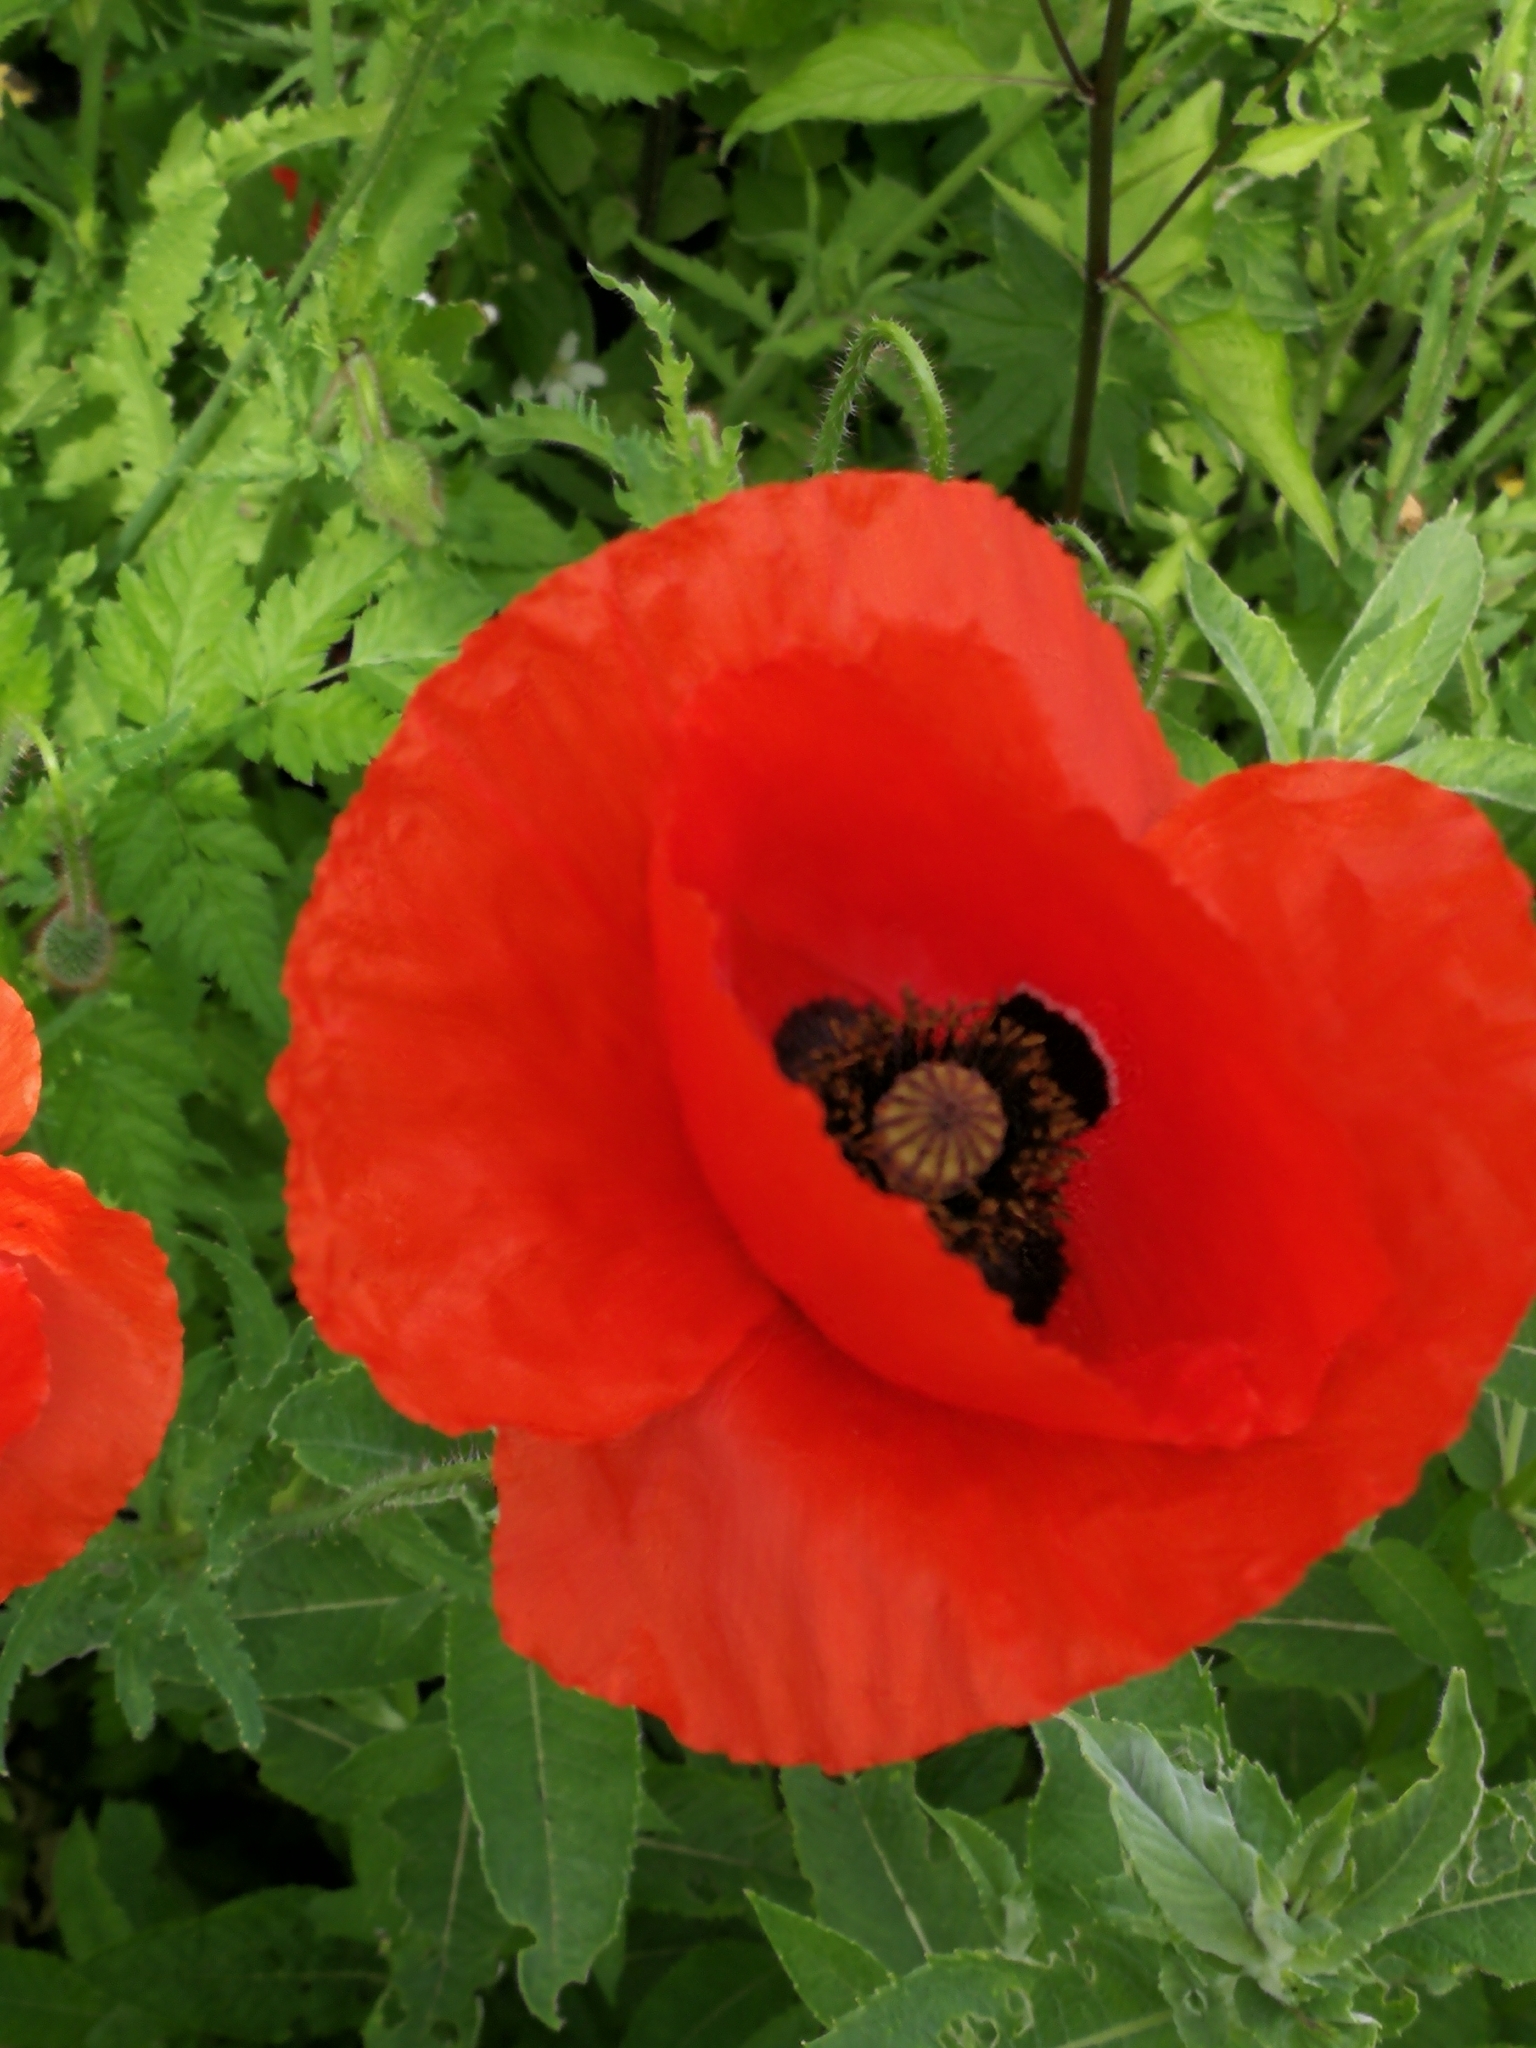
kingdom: Plantae
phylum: Tracheophyta
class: Magnoliopsida
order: Ranunculales
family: Papaveraceae
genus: Papaver
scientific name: Papaver rhoeas
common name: Corn poppy
